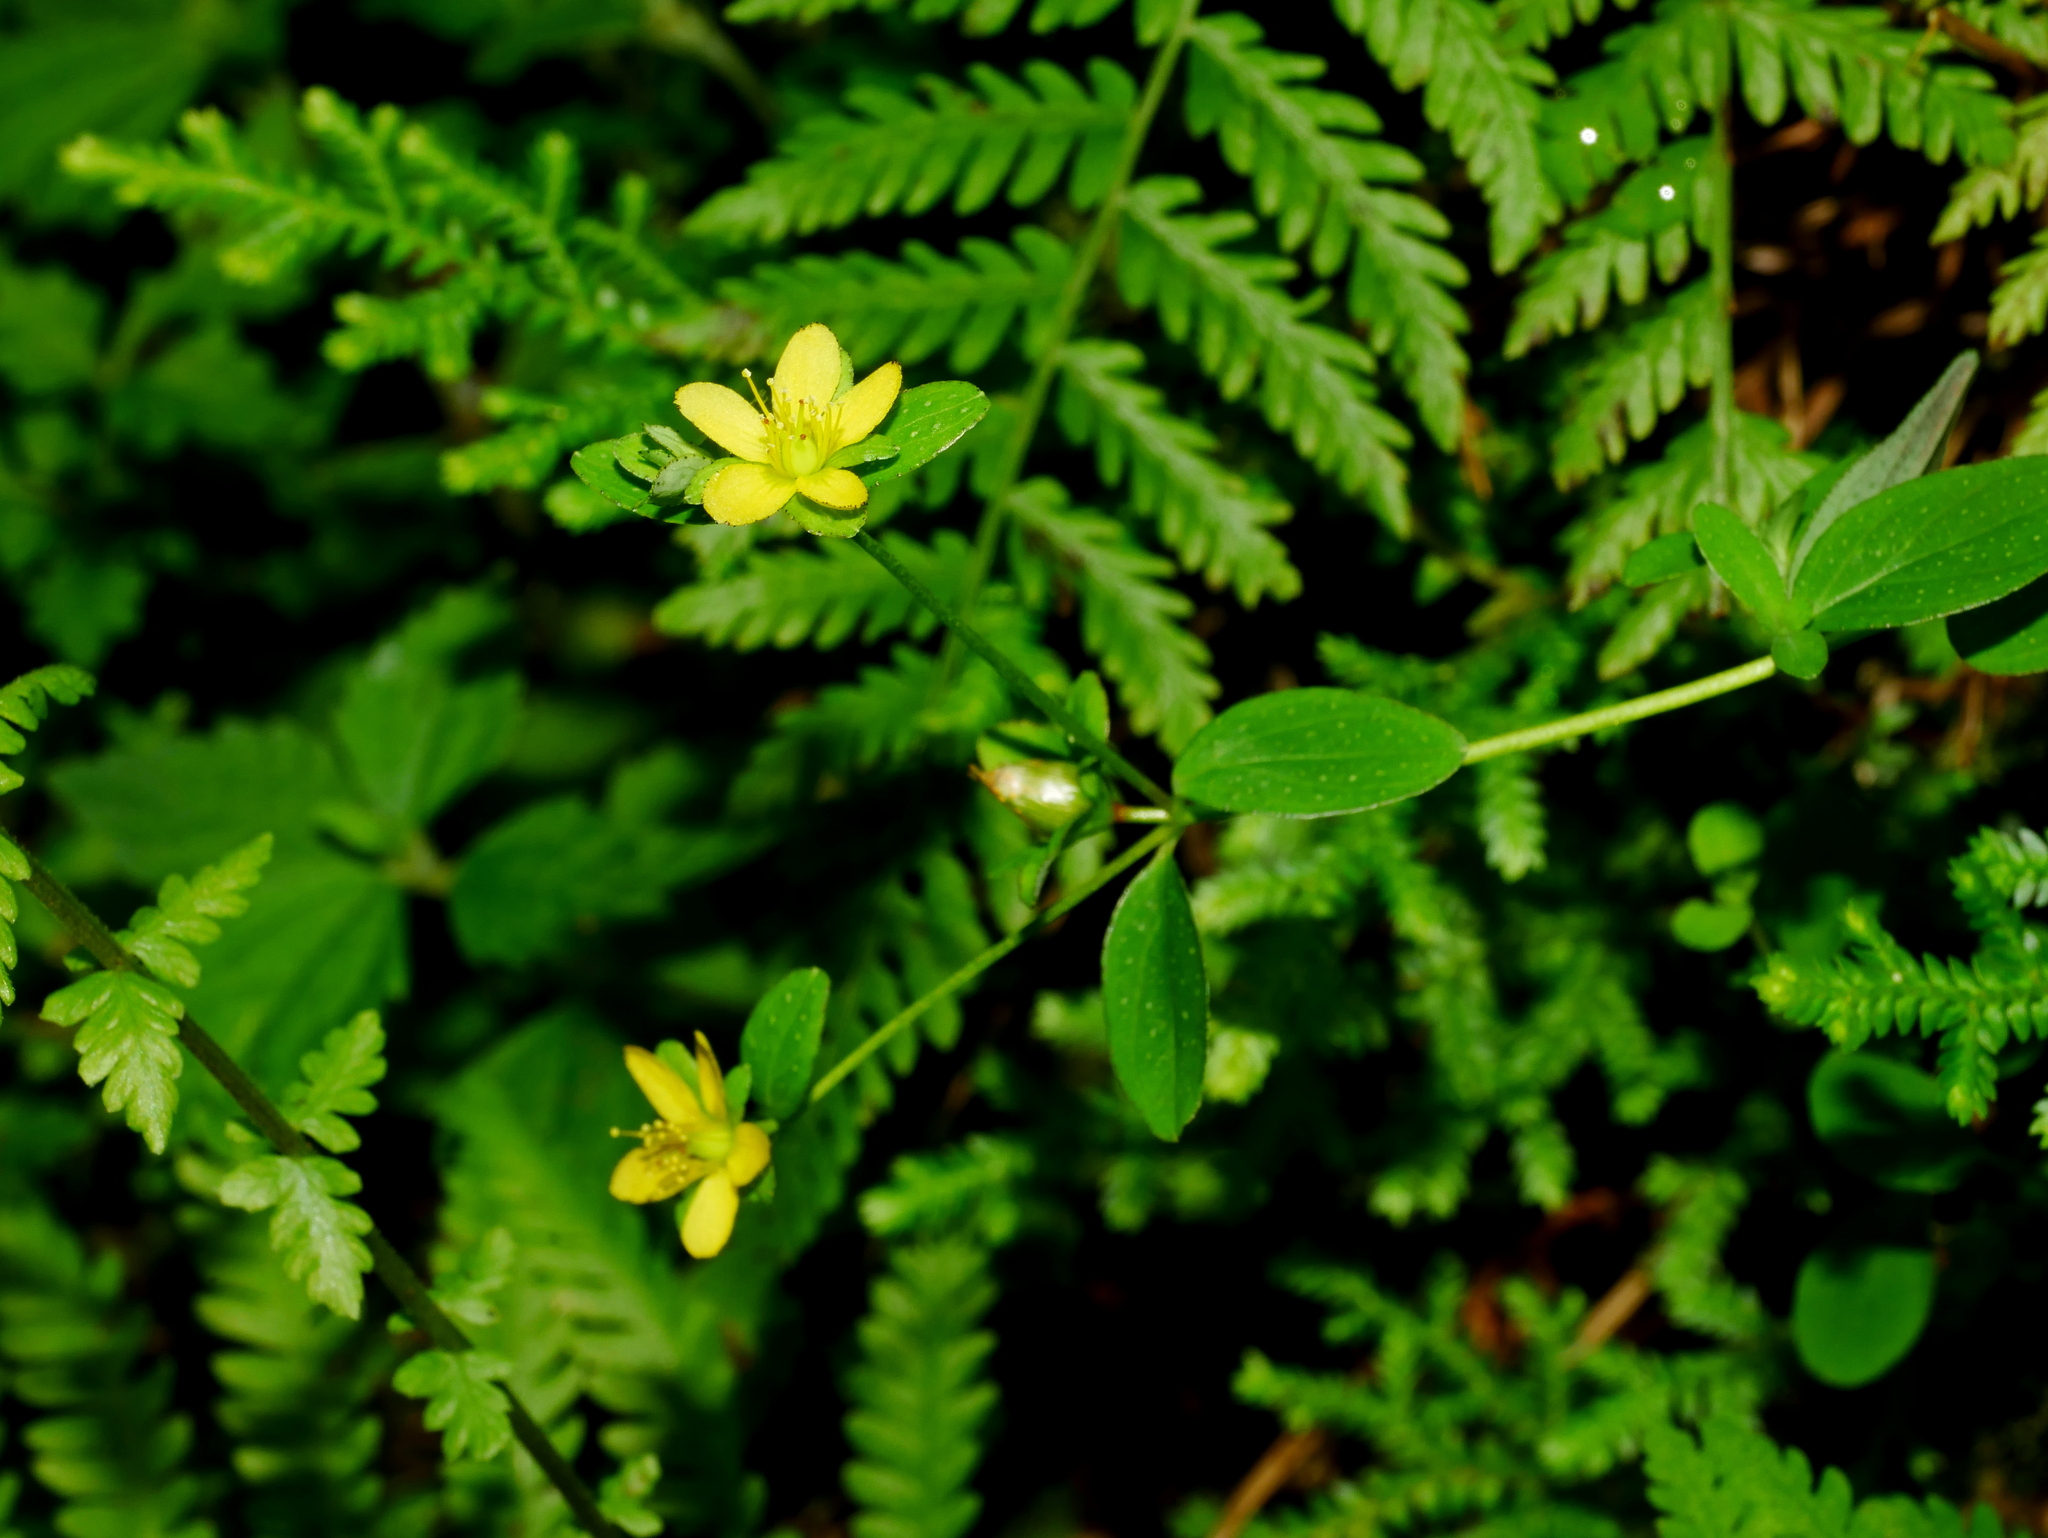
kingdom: Plantae
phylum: Tracheophyta
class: Magnoliopsida
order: Malpighiales
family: Hypericaceae
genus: Hypericum
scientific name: Hypericum taihezanense
